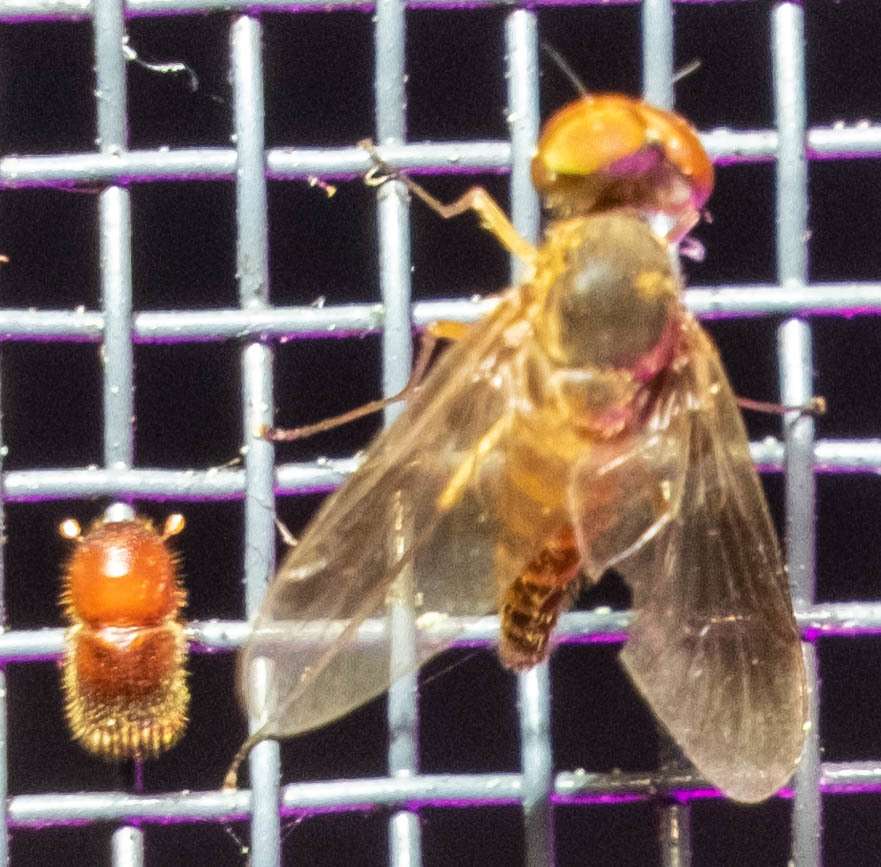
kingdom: Animalia
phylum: Arthropoda
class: Insecta
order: Diptera
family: Rhagionidae
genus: Chrysopilus
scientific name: Chrysopilus quadratus
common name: Quadrate snipe fly
